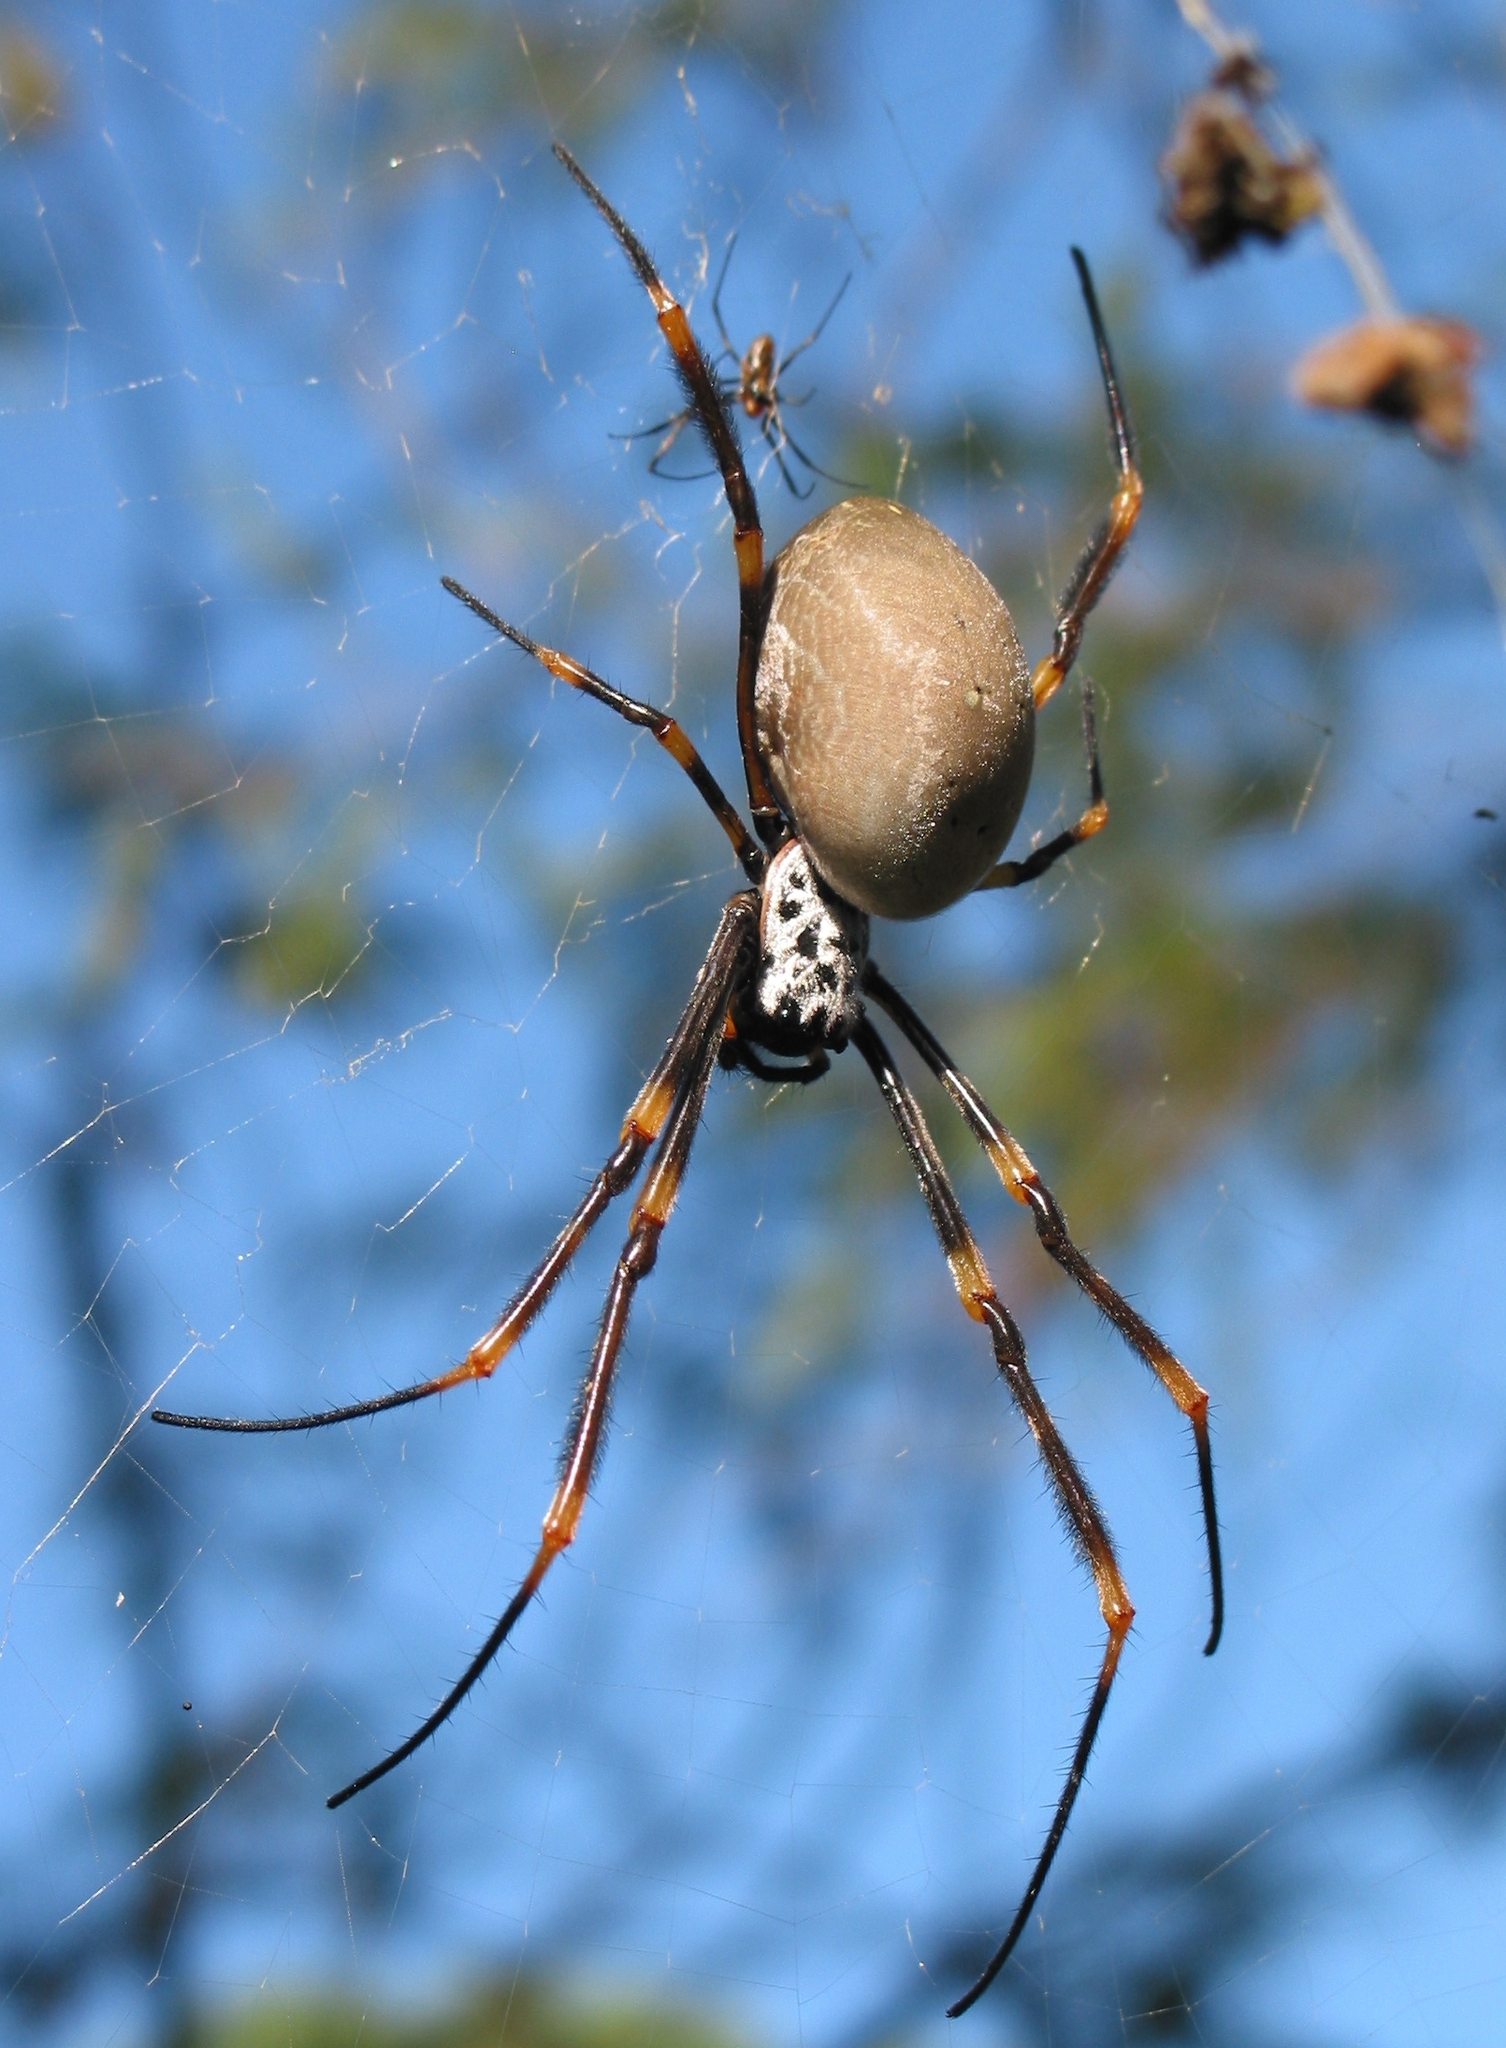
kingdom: Animalia
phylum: Arthropoda
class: Arachnida
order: Araneae
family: Araneidae
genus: Trichonephila
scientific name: Trichonephila plumipes
